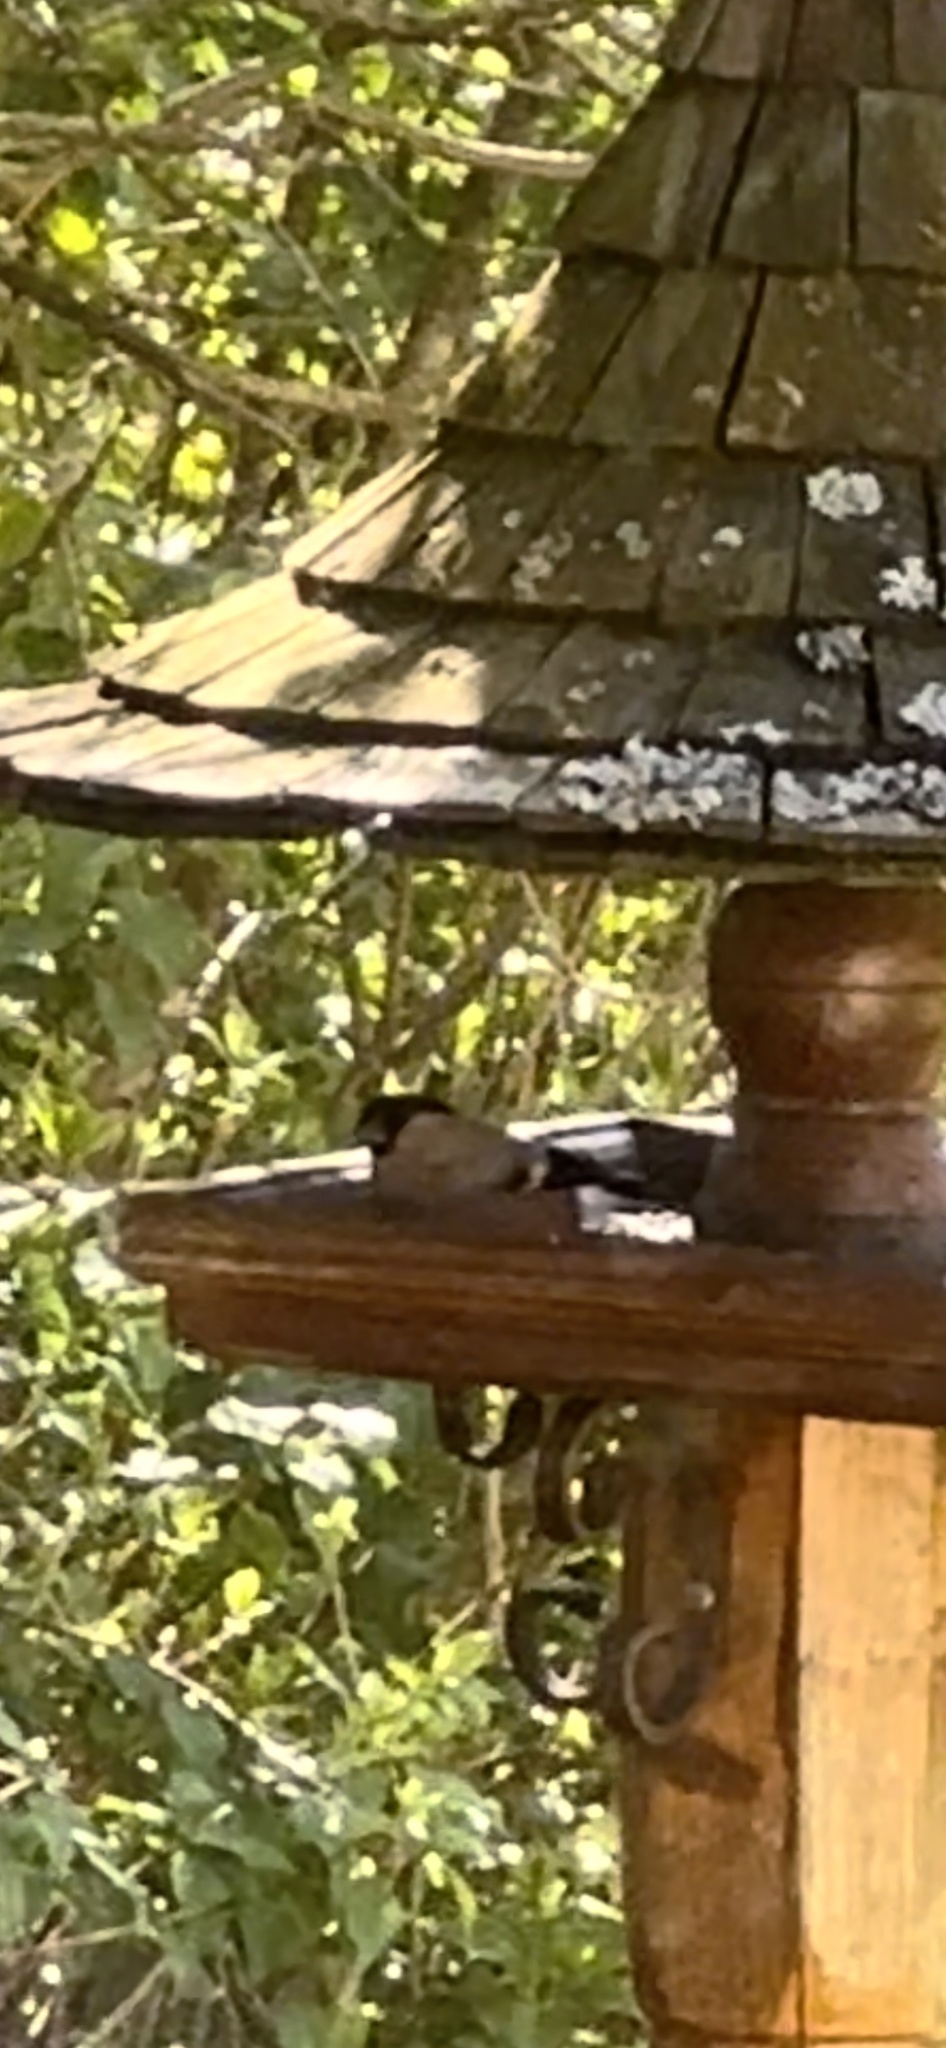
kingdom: Animalia
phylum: Chordata
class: Aves
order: Passeriformes
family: Fringillidae
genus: Pyrrhula
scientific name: Pyrrhula pyrrhula
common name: Eurasian bullfinch
